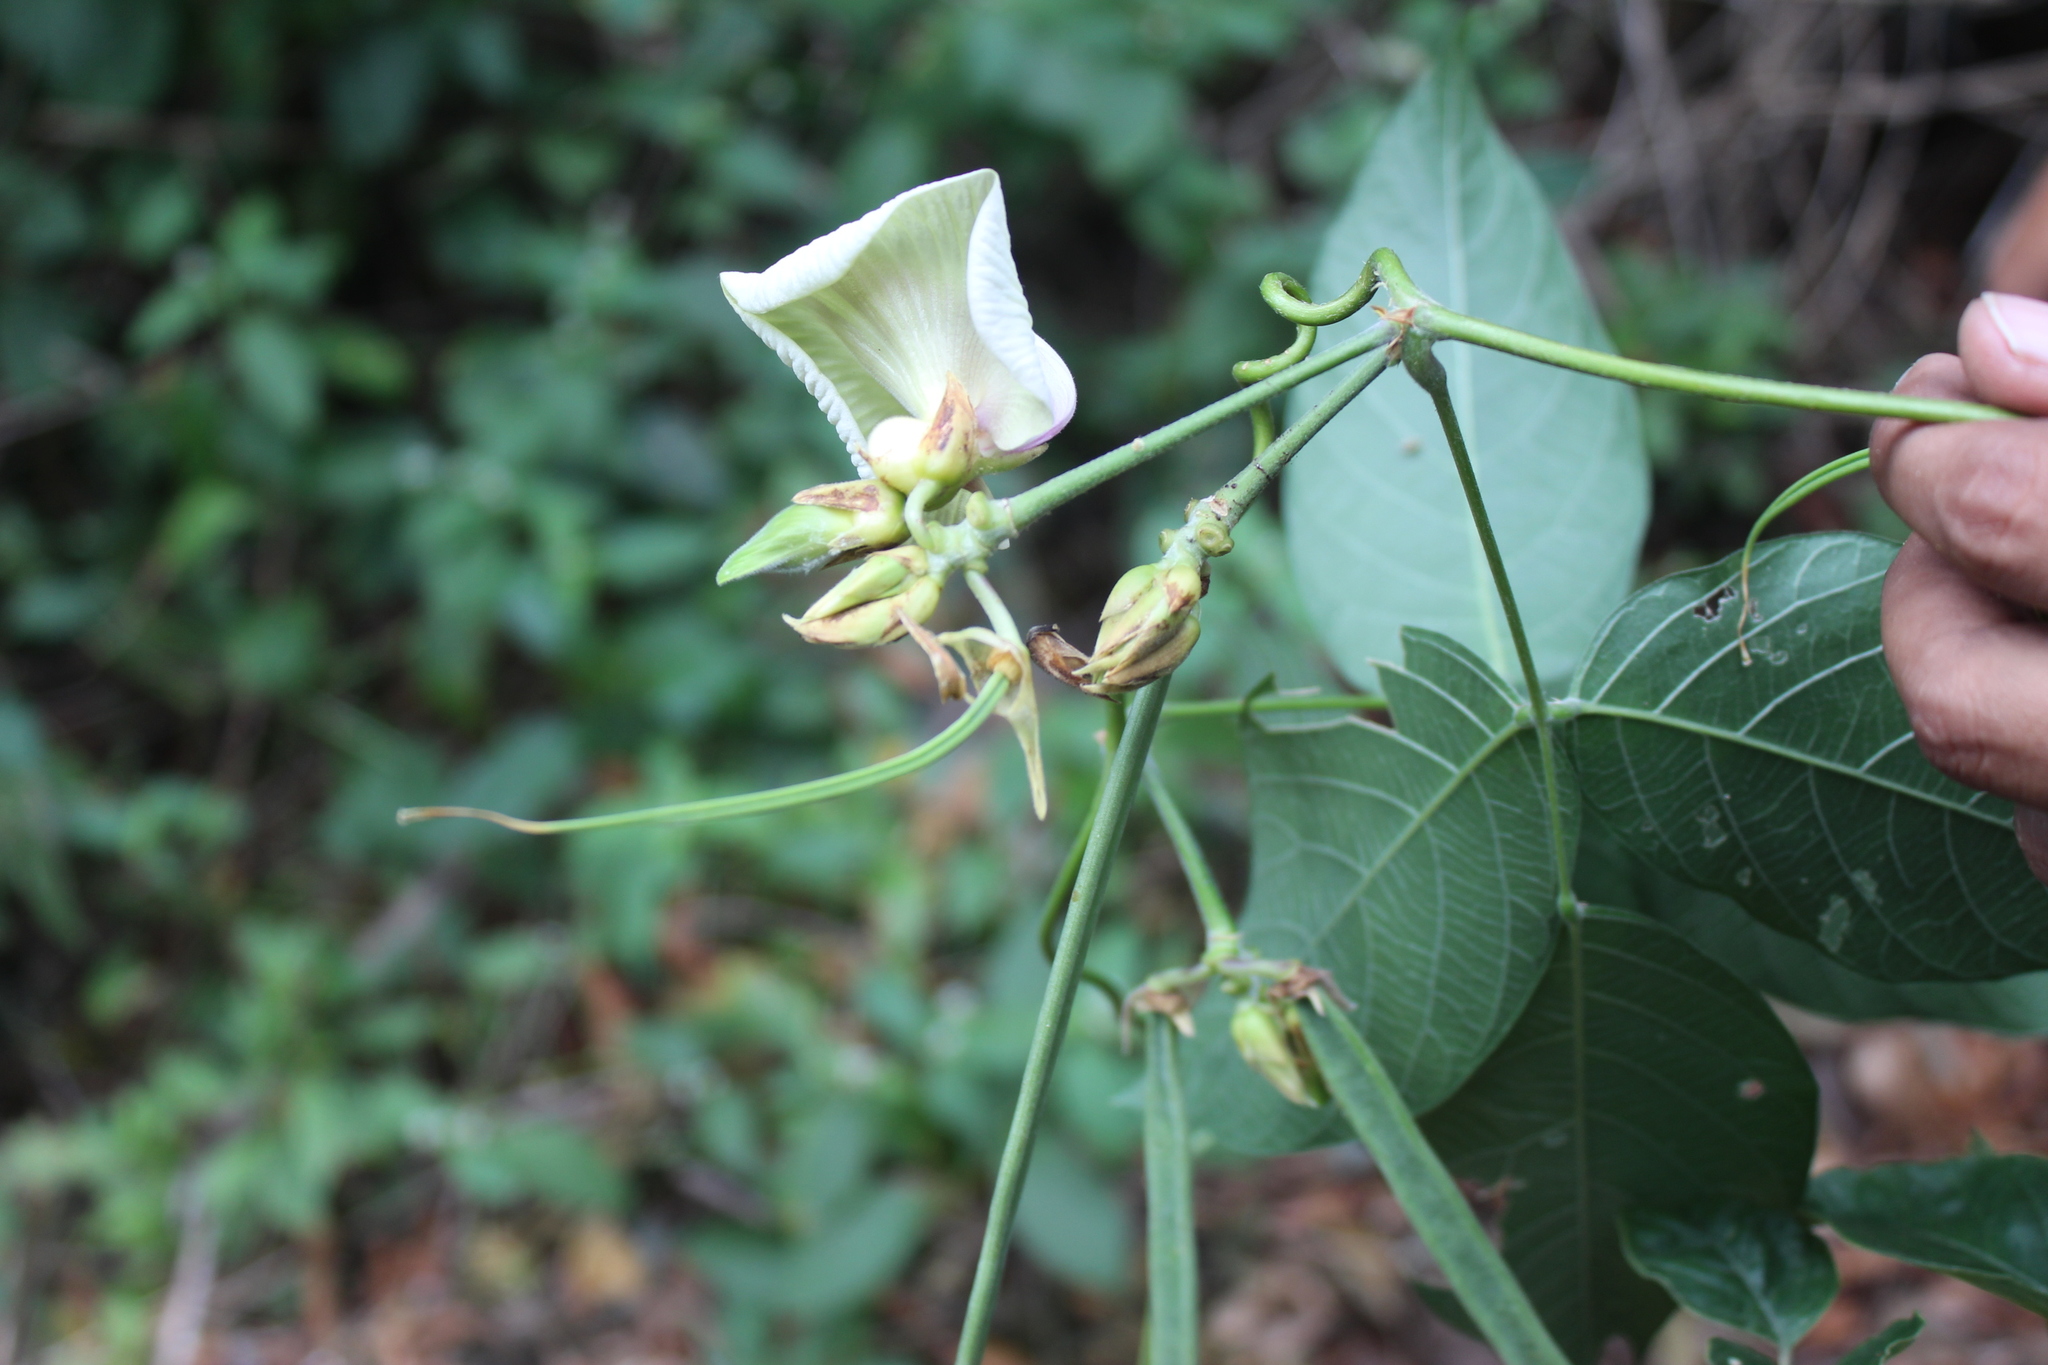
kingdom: Plantae
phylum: Tracheophyta
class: Magnoliopsida
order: Fabales
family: Fabaceae
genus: Centrosema
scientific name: Centrosema macrocarpum
